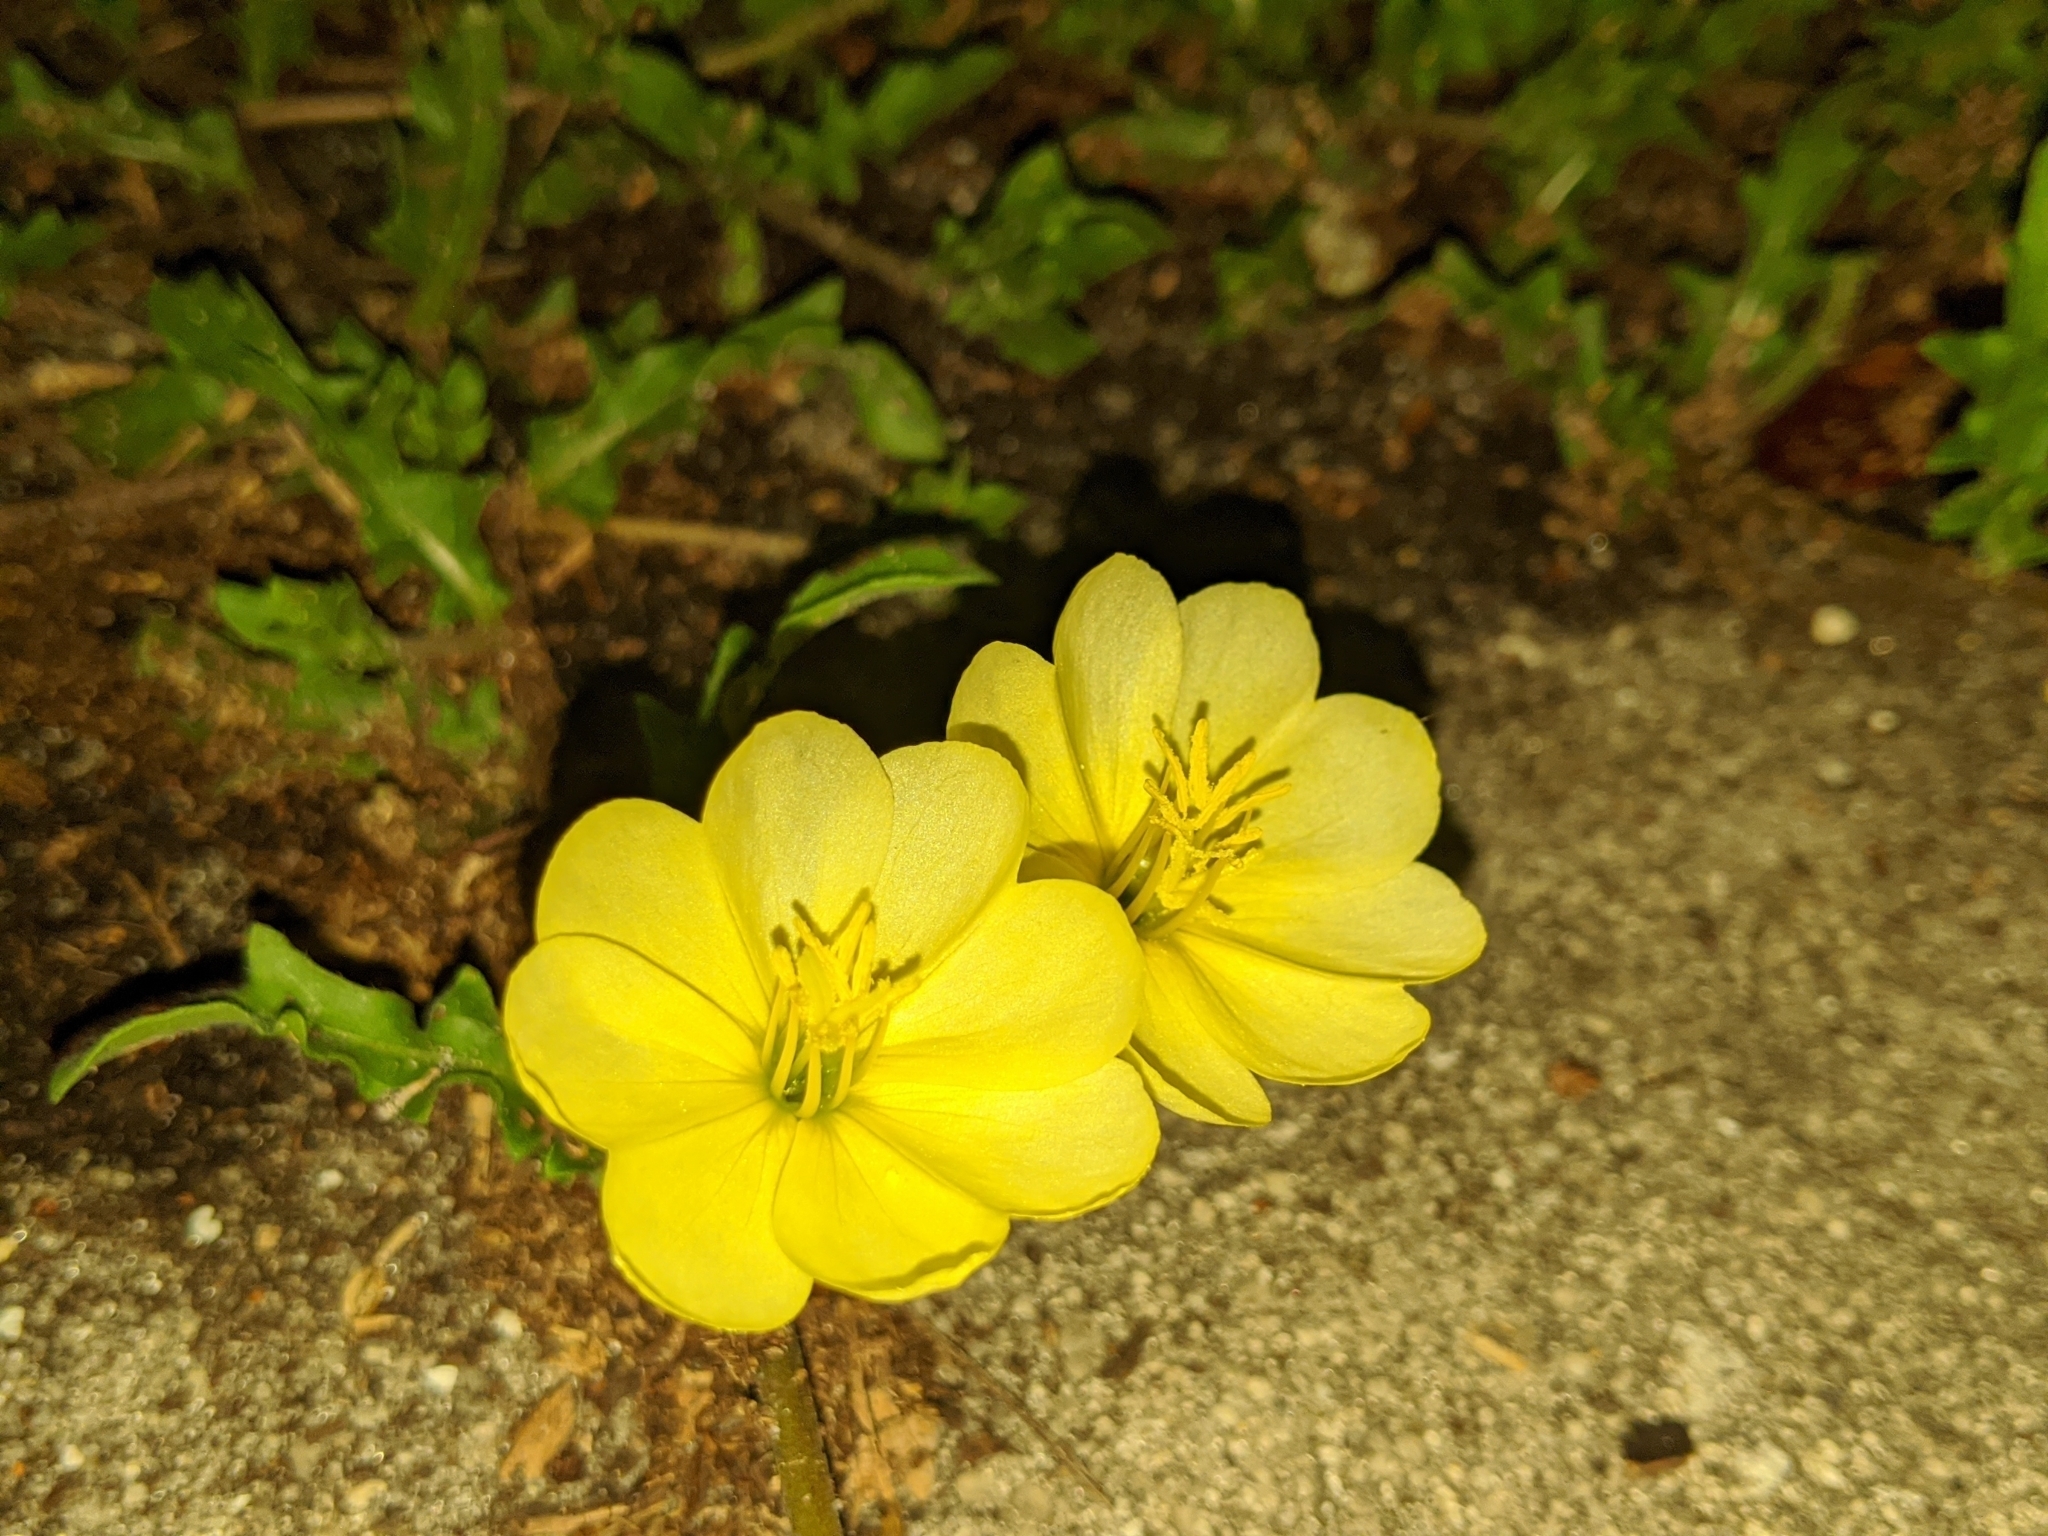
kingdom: Plantae
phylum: Tracheophyta
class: Magnoliopsida
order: Myrtales
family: Onagraceae
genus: Oenothera
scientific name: Oenothera laciniata
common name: Cut-leaved evening-primrose
